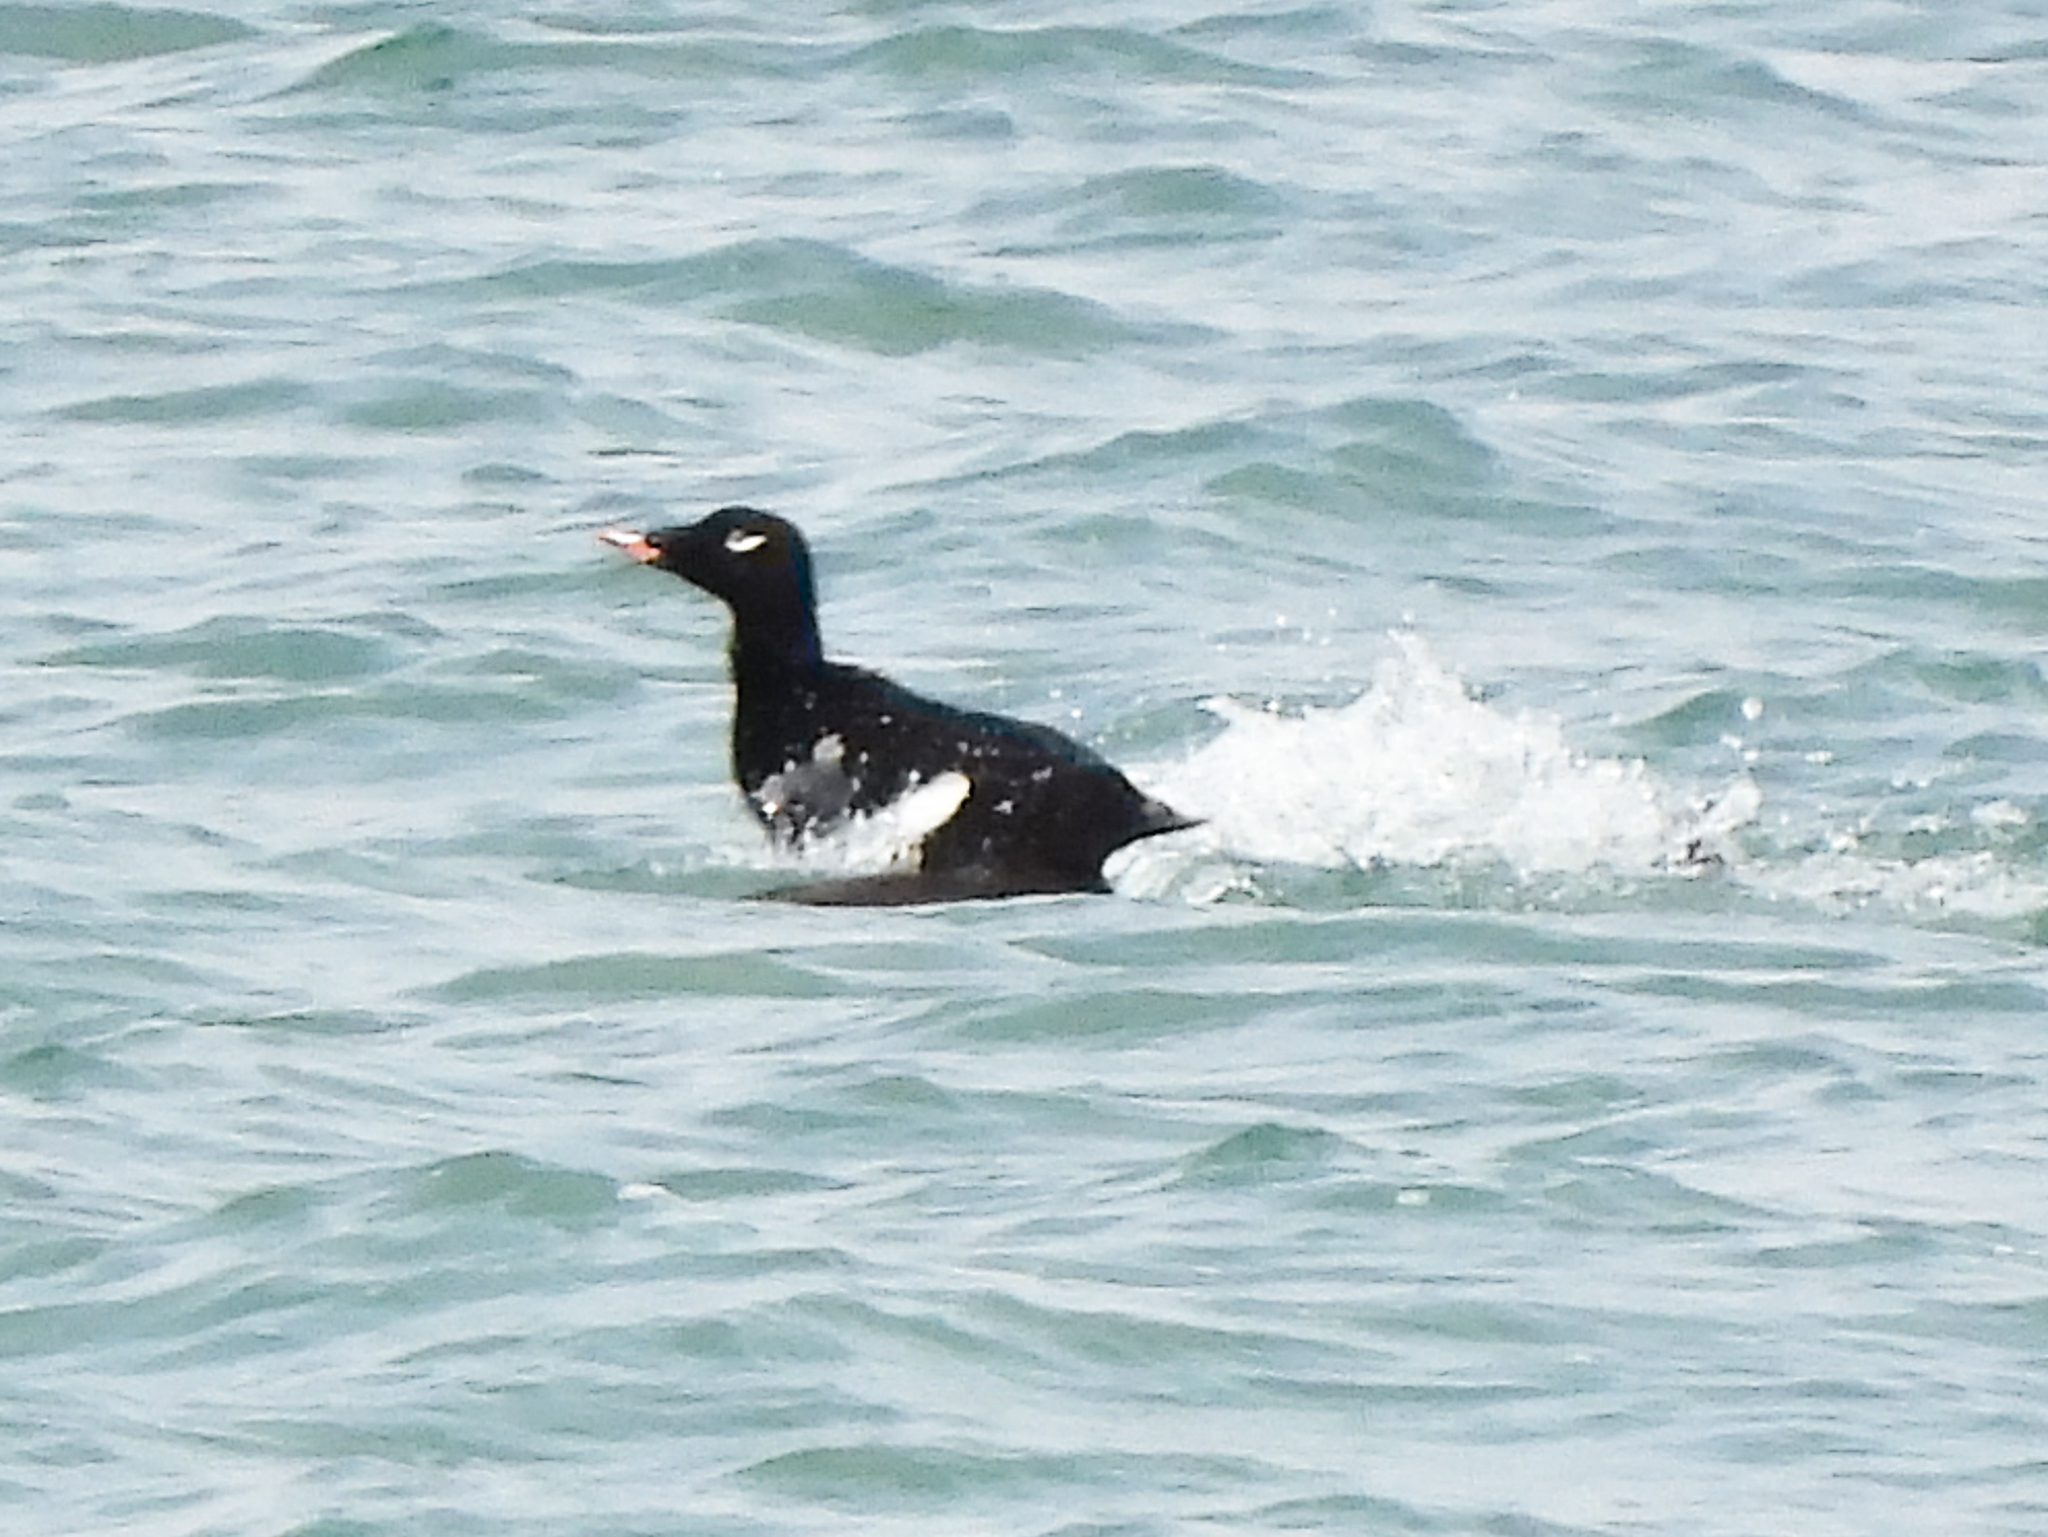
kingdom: Animalia
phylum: Chordata
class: Aves
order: Anseriformes
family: Anatidae
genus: Melanitta
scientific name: Melanitta deglandi
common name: White-winged scoter
